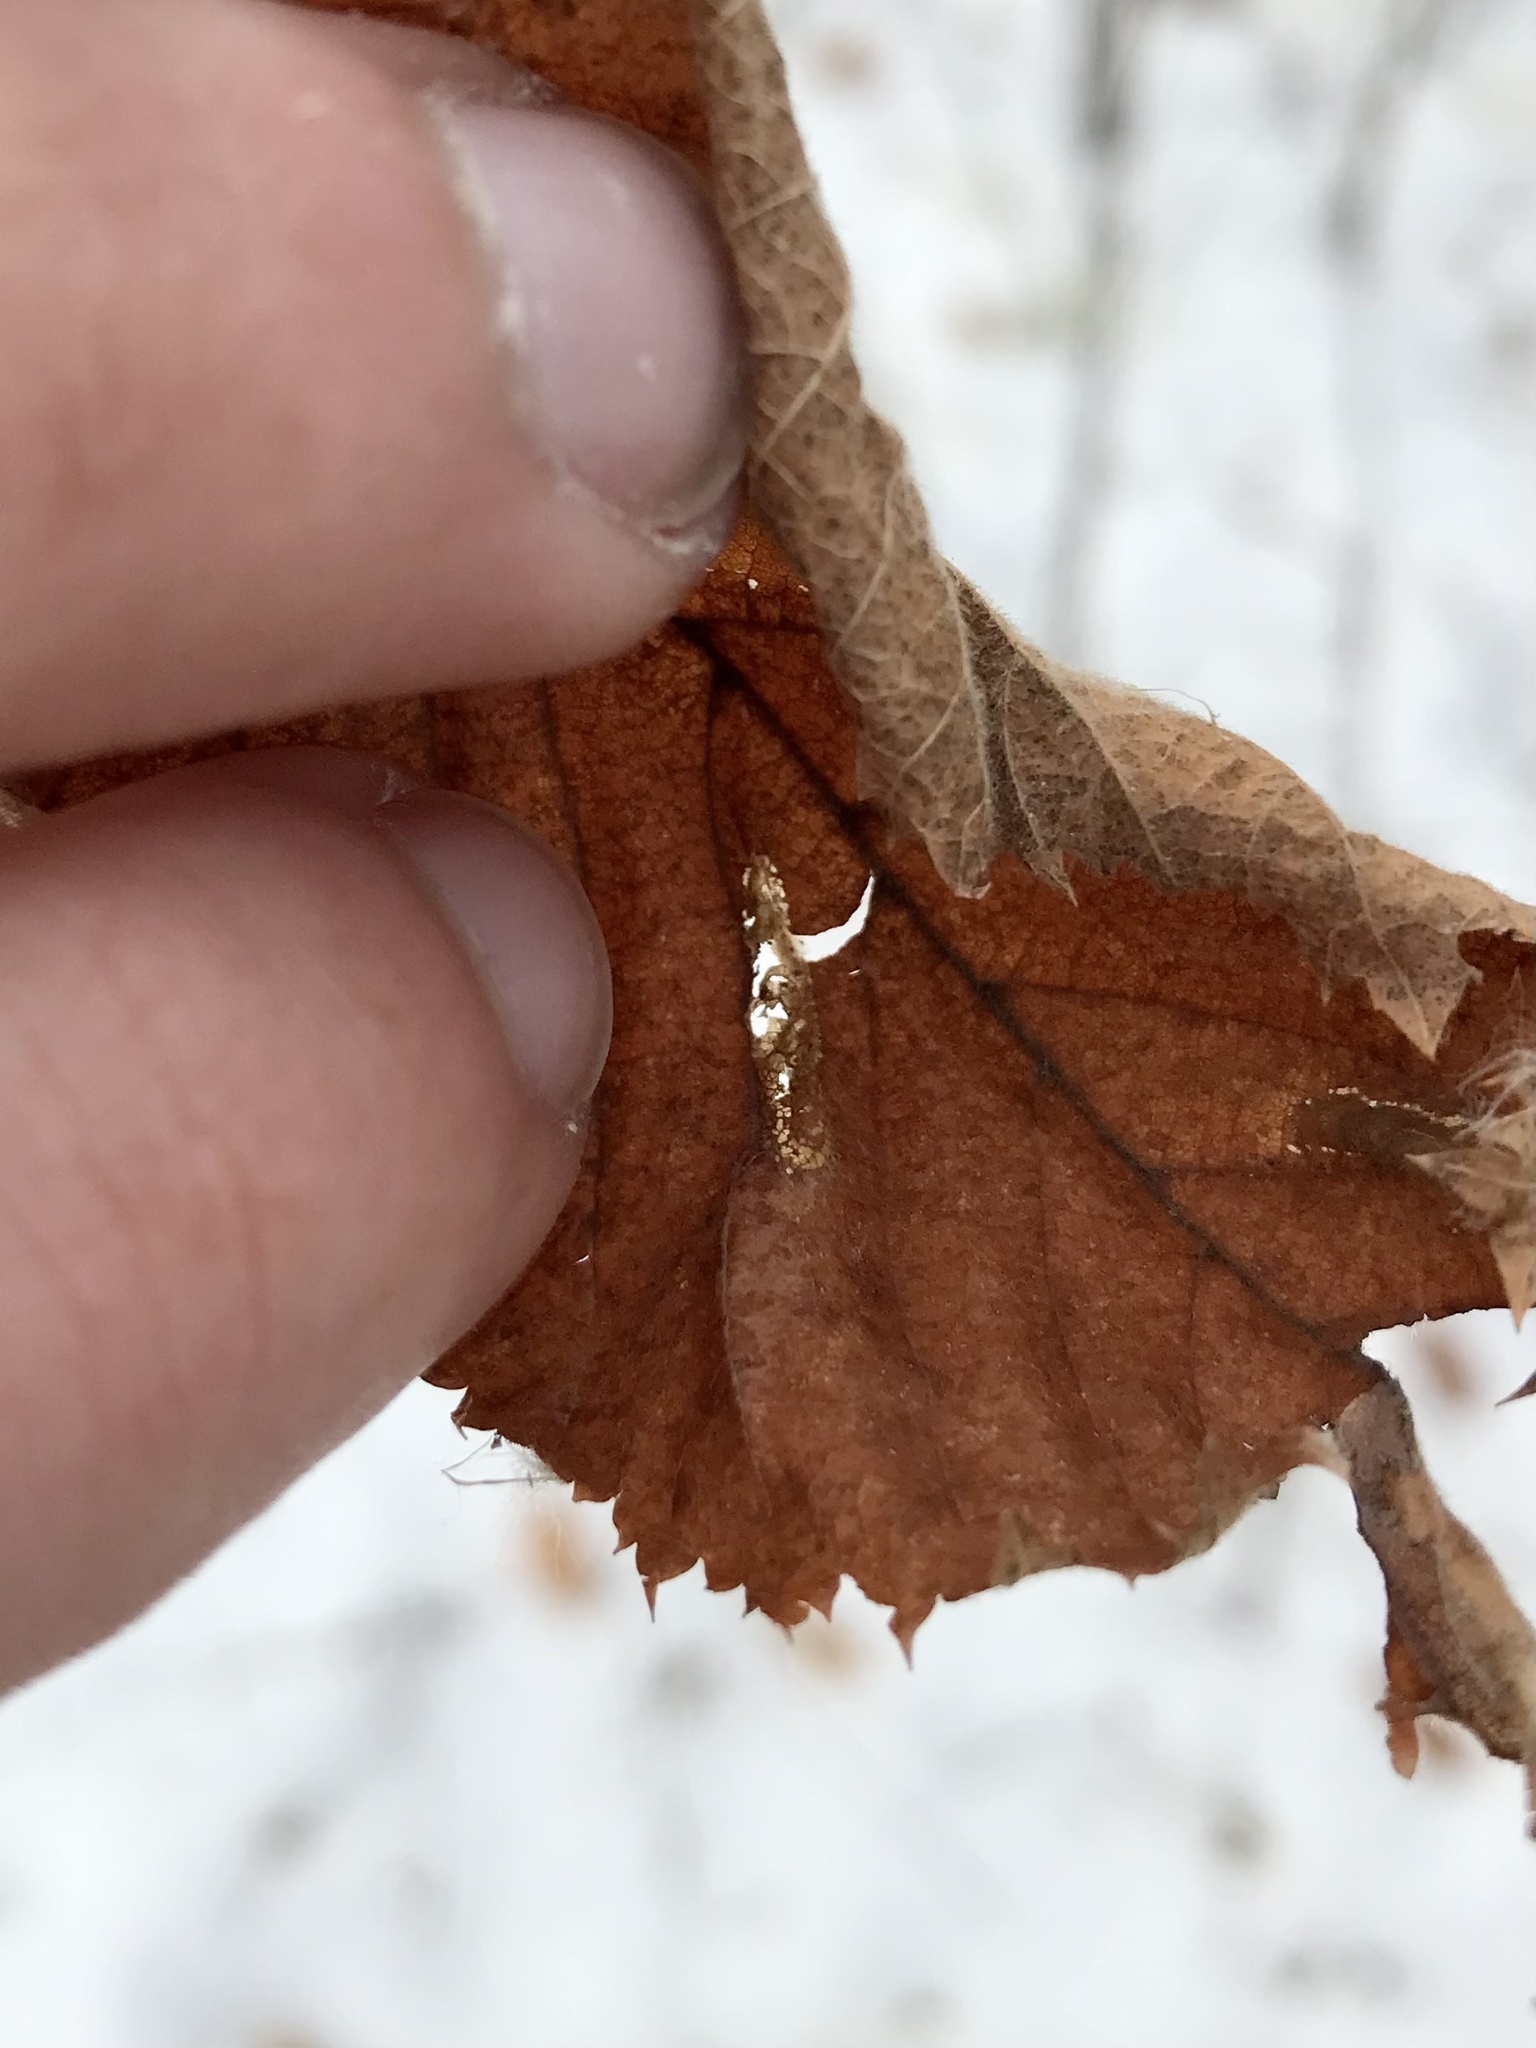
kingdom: Animalia
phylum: Arthropoda
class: Insecta
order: Lepidoptera
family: Gracillariidae
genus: Phyllonorycter
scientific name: Phyllonorycter obscuricostella
